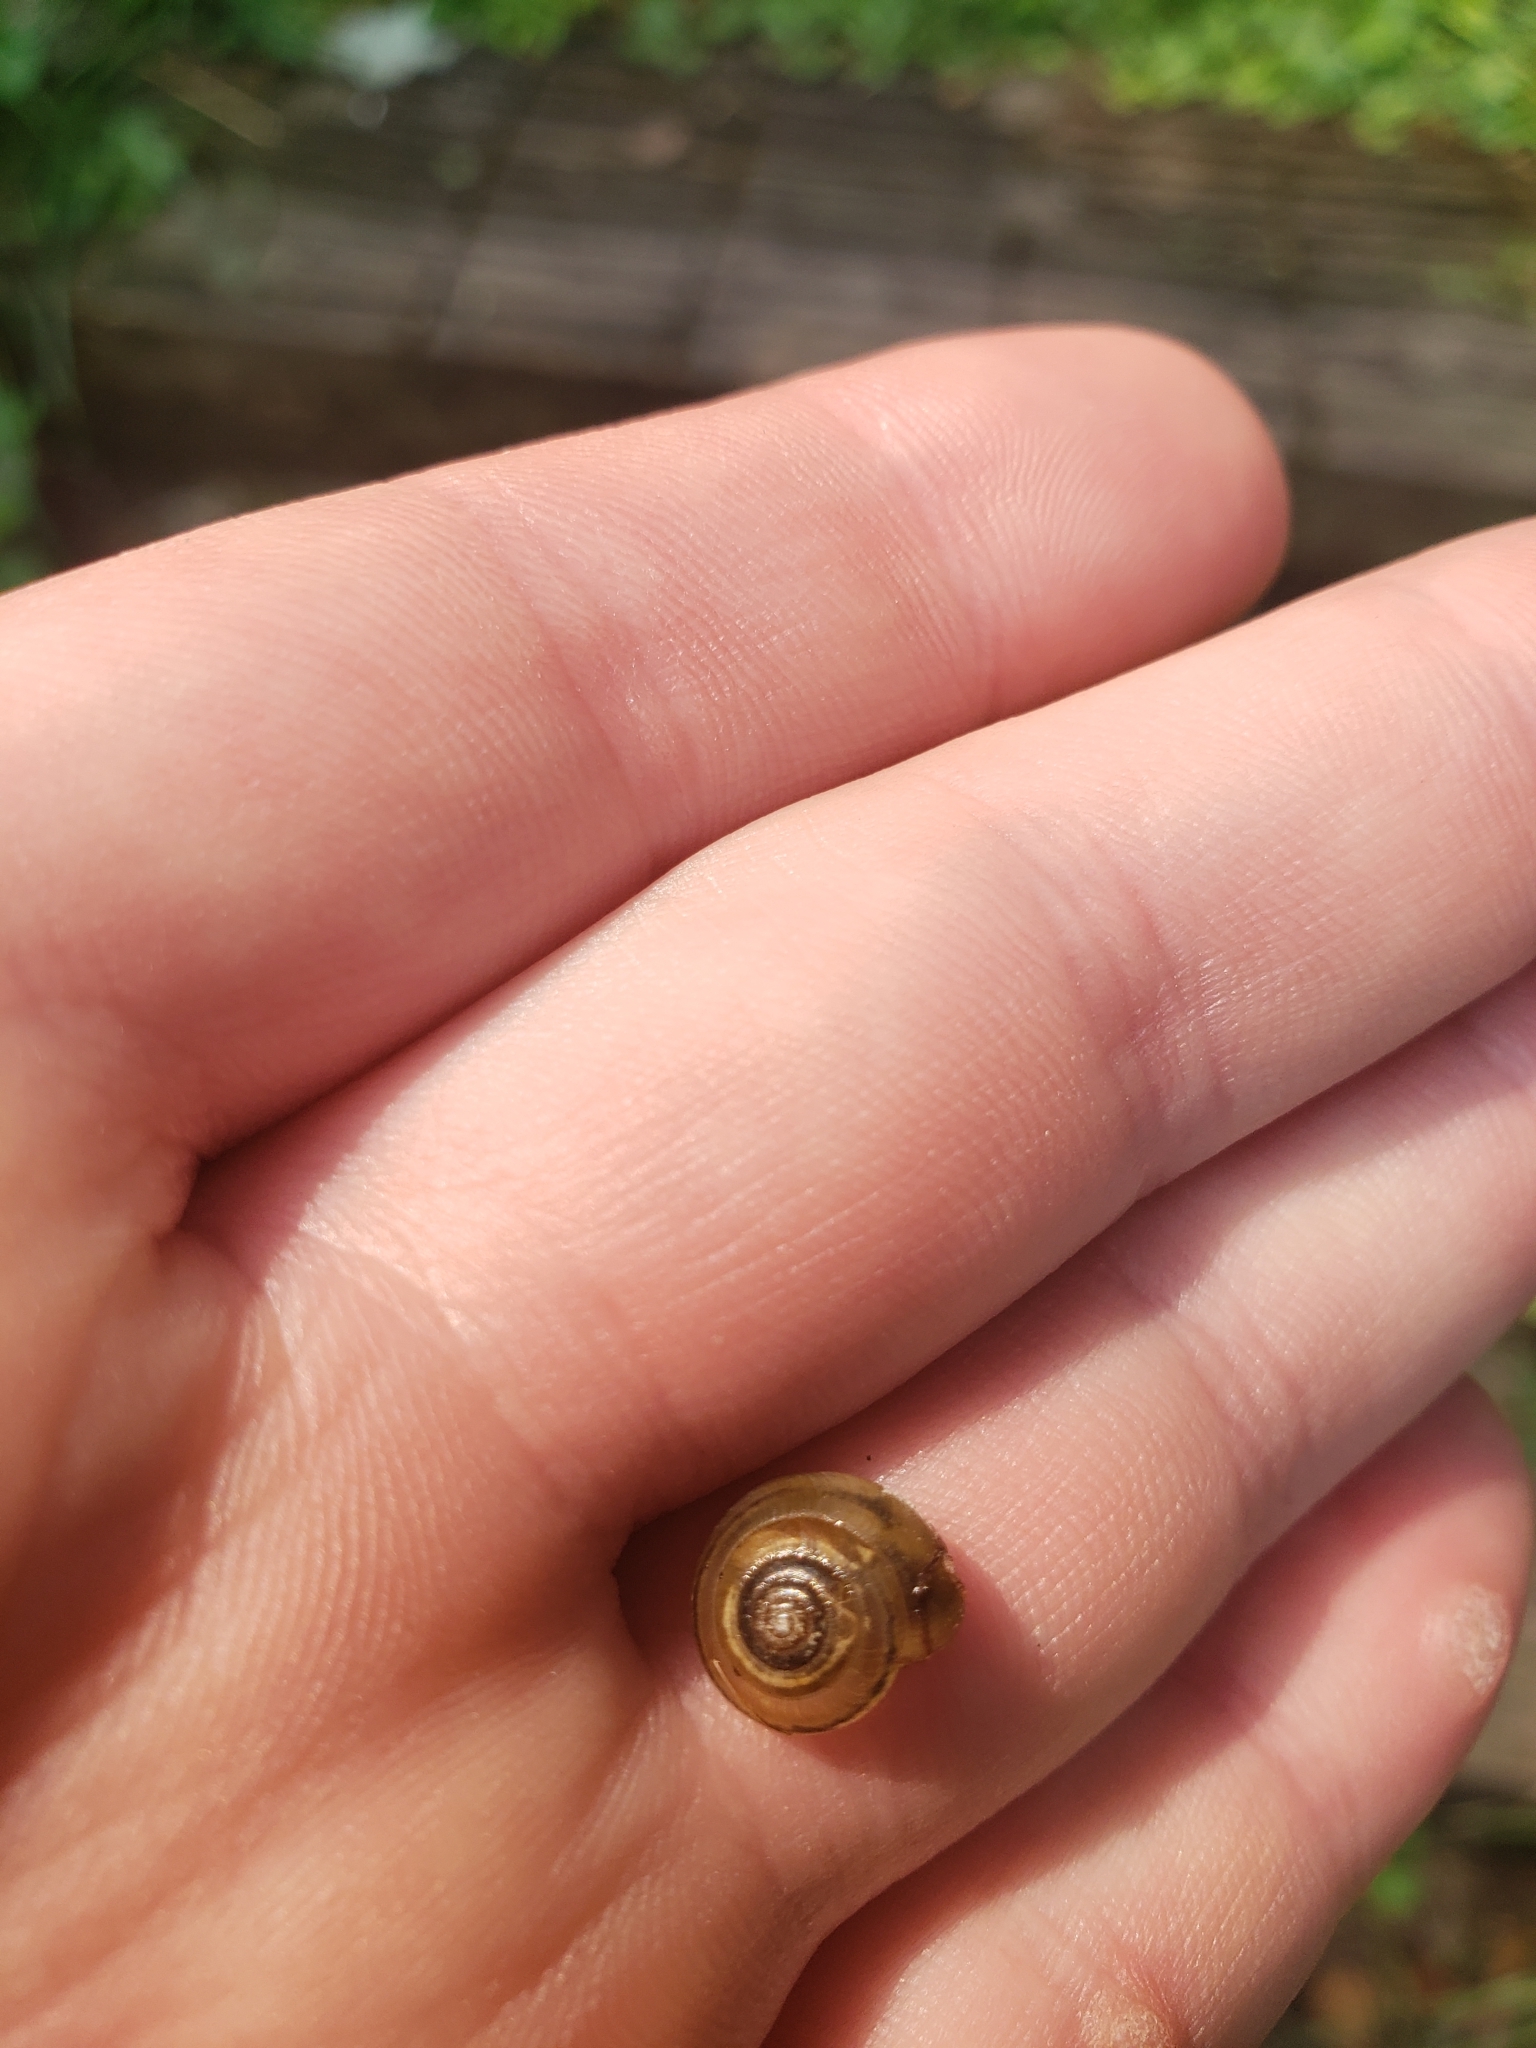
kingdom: Animalia
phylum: Mollusca
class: Gastropoda
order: Stylommatophora
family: Gastrodontidae
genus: Ventridens
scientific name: Ventridens ligera
